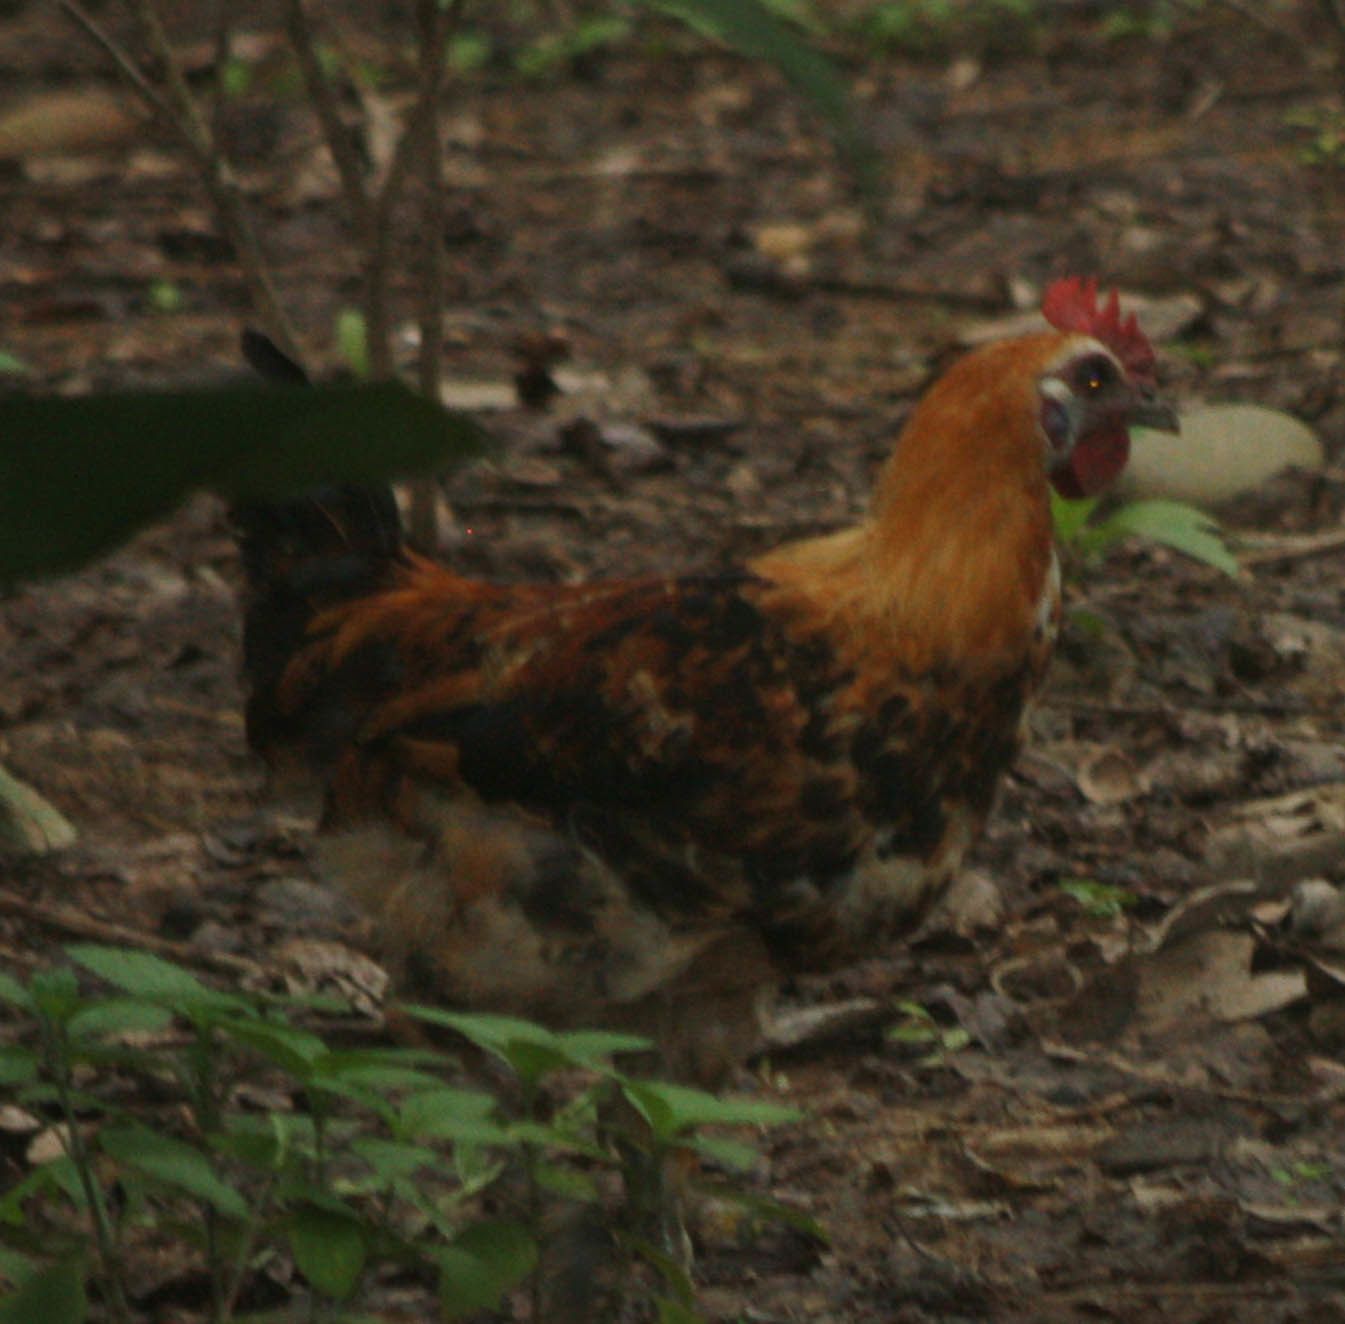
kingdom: Animalia
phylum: Chordata
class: Aves
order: Galliformes
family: Phasianidae
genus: Gallus
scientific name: Gallus gallus
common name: Red junglefowl
